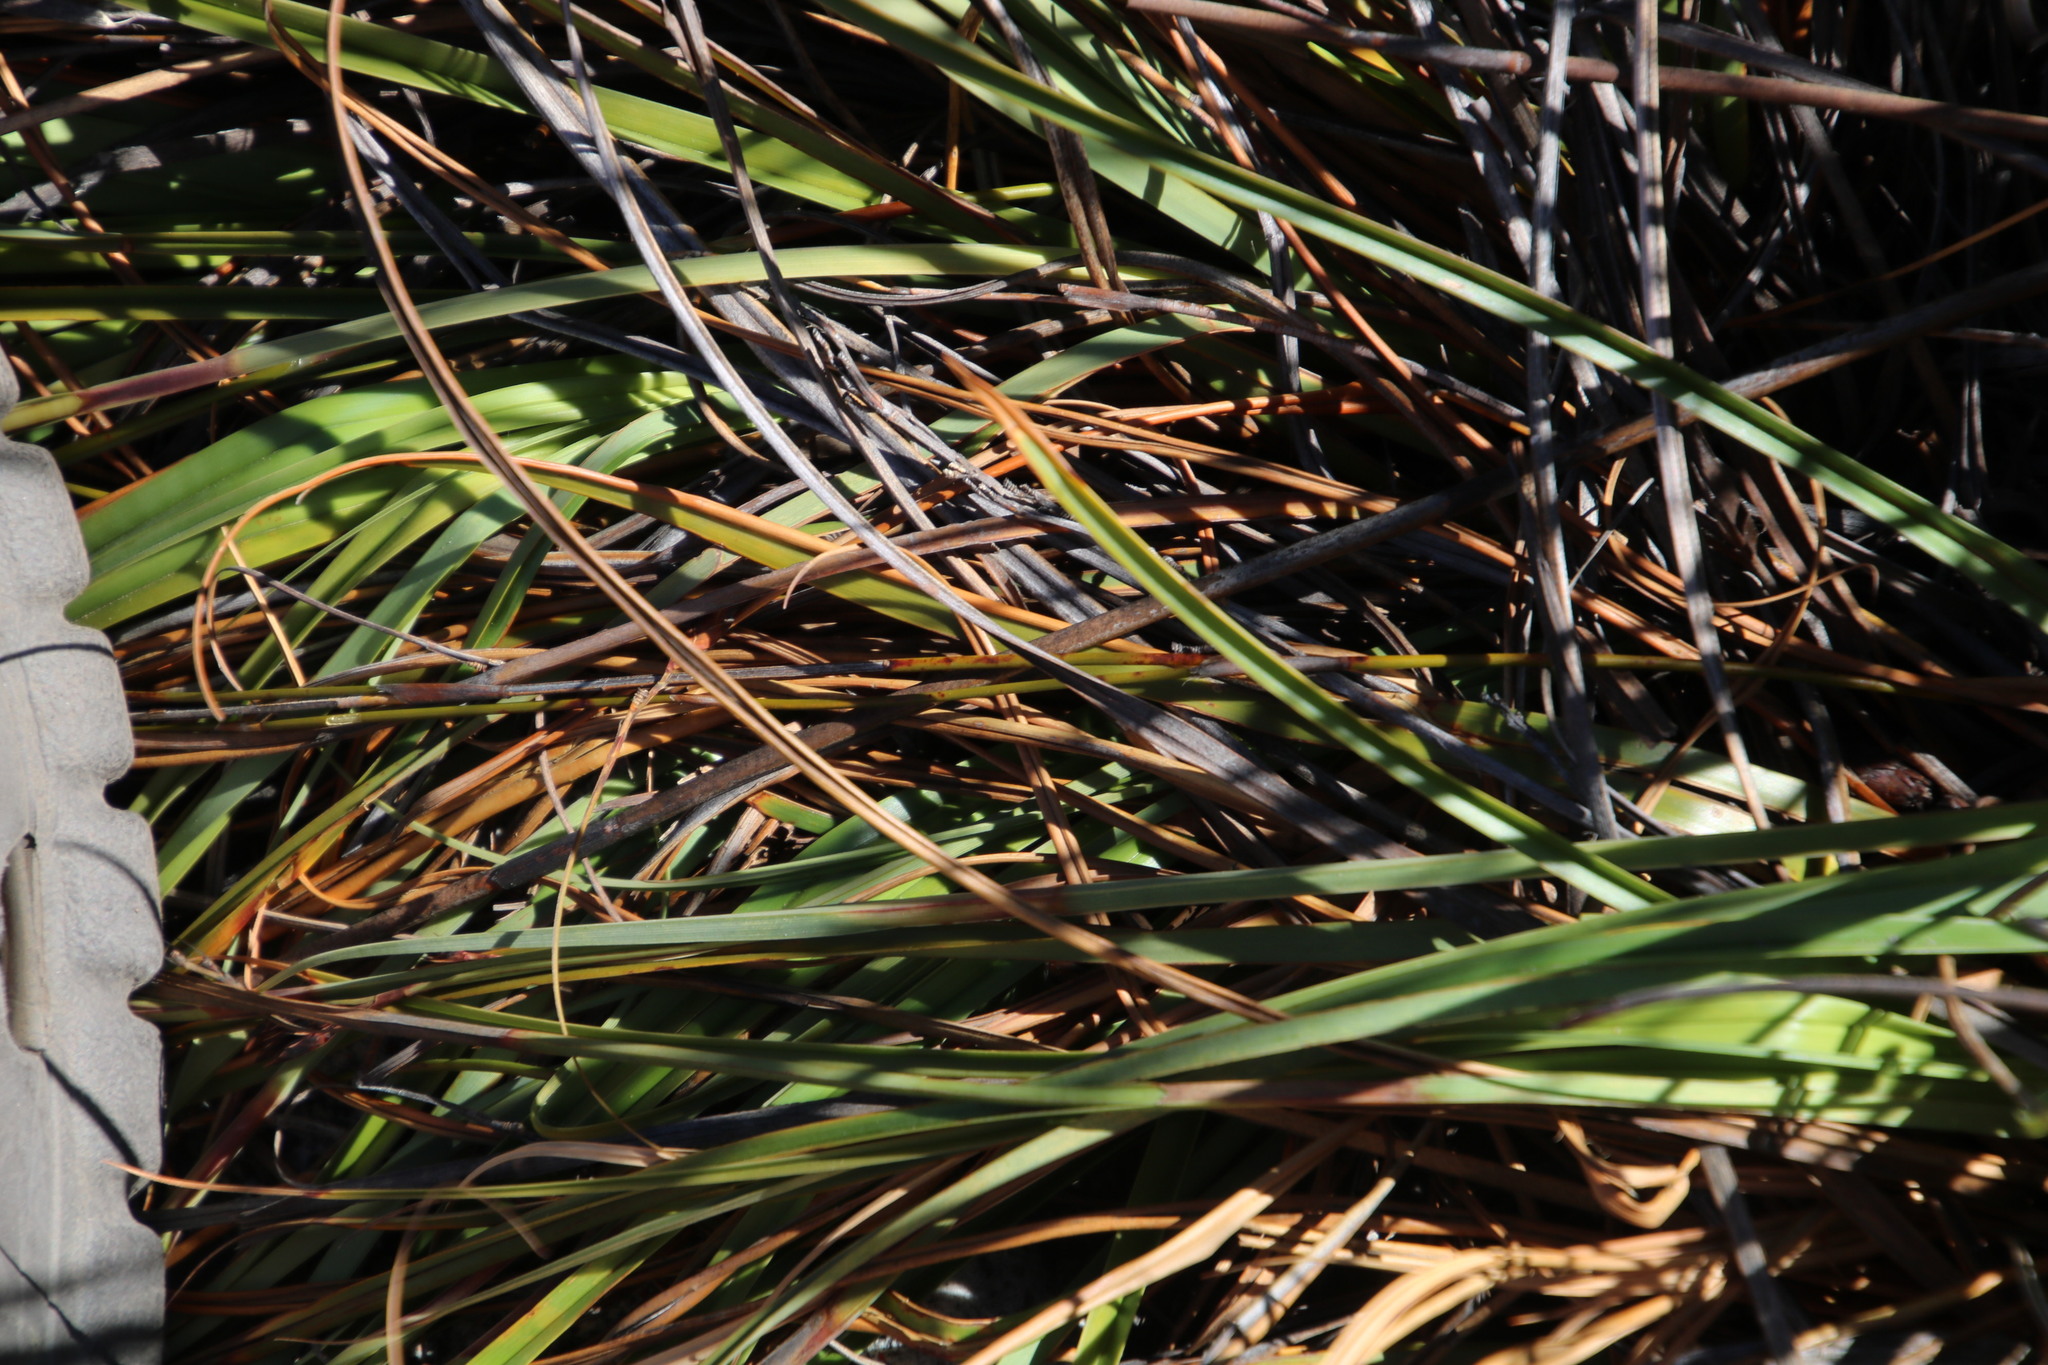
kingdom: Plantae
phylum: Tracheophyta
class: Liliopsida
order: Poales
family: Cyperaceae
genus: Tetraria
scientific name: Tetraria triangularis
